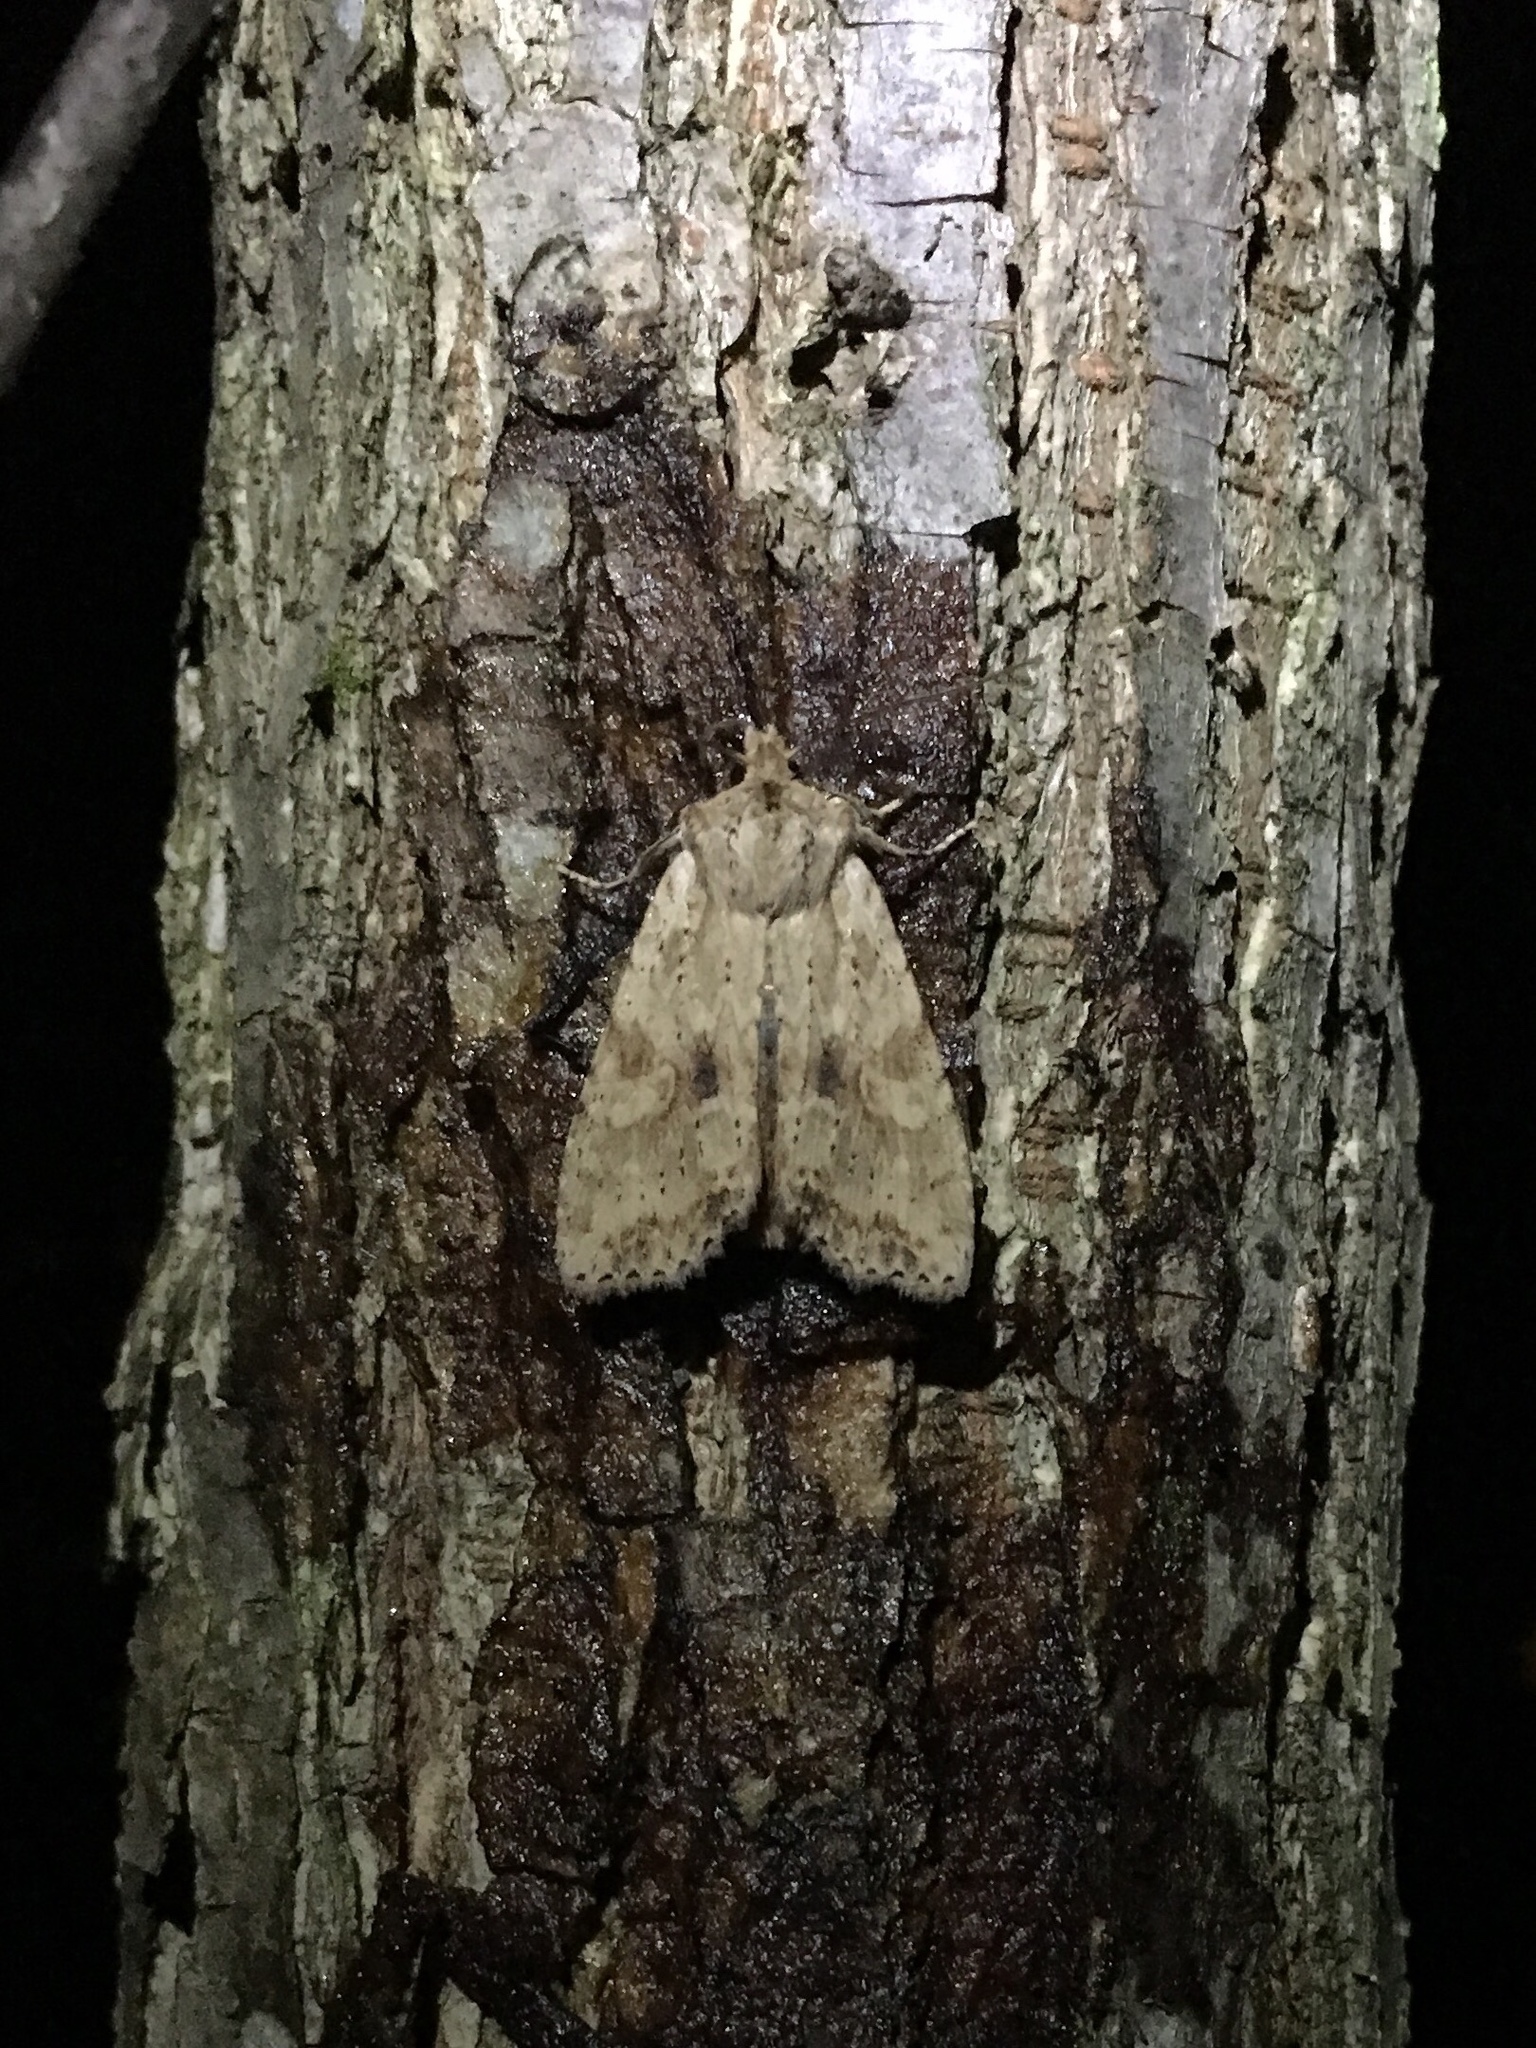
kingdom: Animalia
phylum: Arthropoda
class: Insecta
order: Lepidoptera
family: Noctuidae
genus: Lithophane
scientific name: Lithophane innominata
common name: Nameless pinion moth
